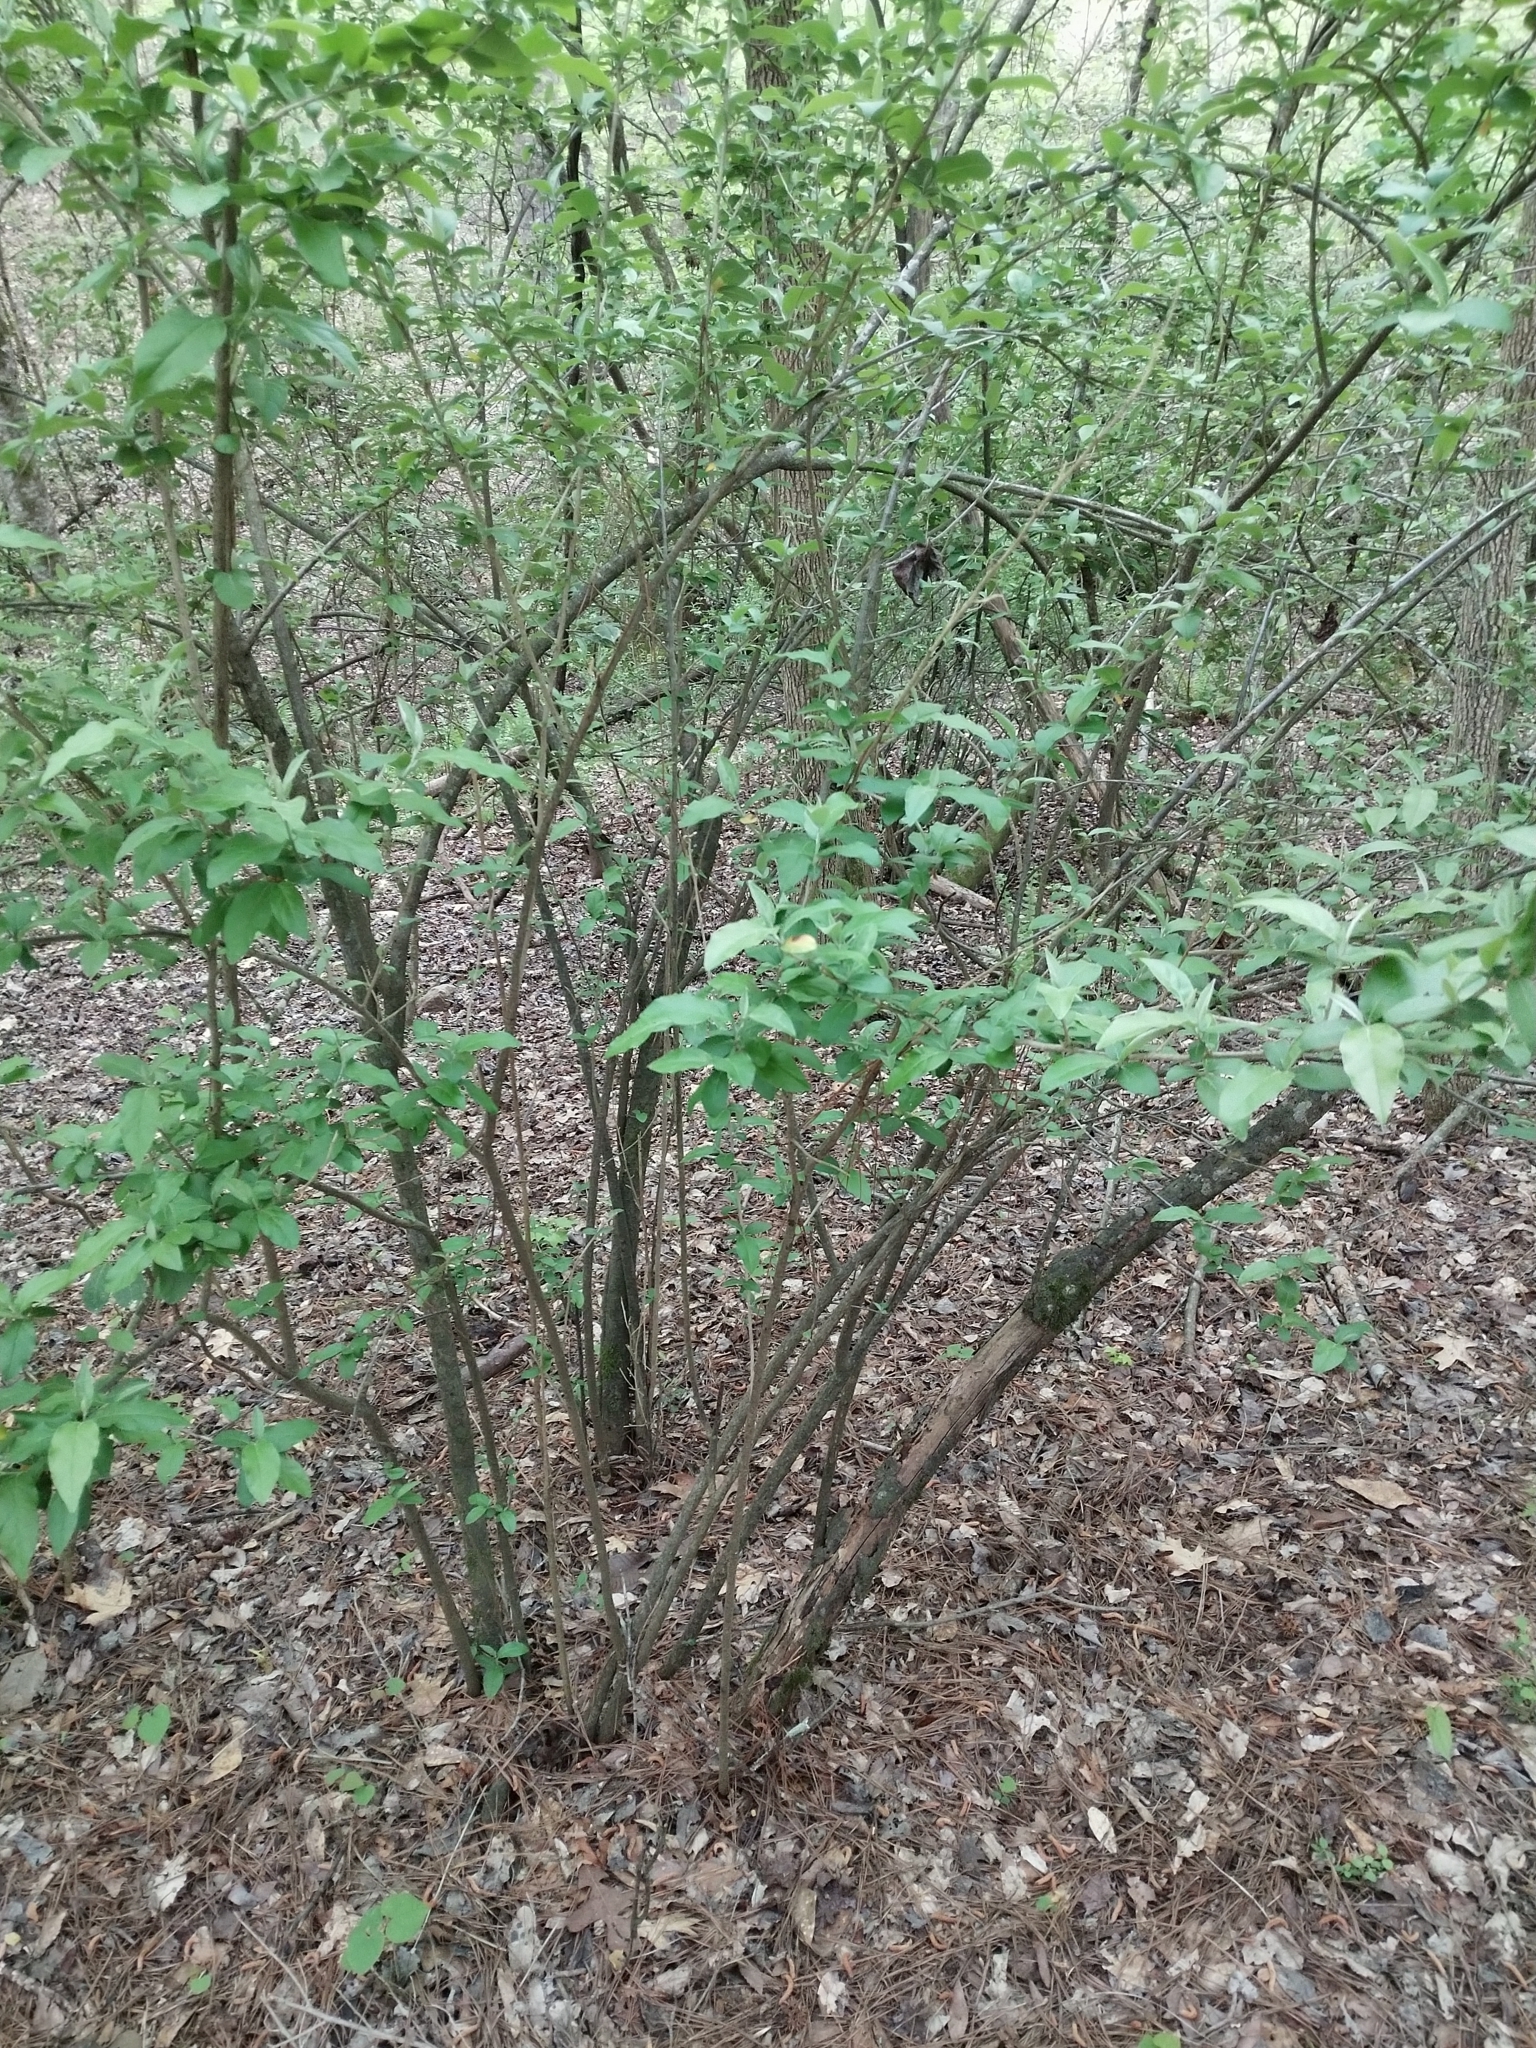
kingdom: Plantae
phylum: Tracheophyta
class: Magnoliopsida
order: Rosales
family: Elaeagnaceae
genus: Elaeagnus
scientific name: Elaeagnus umbellata
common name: Autumn olive
